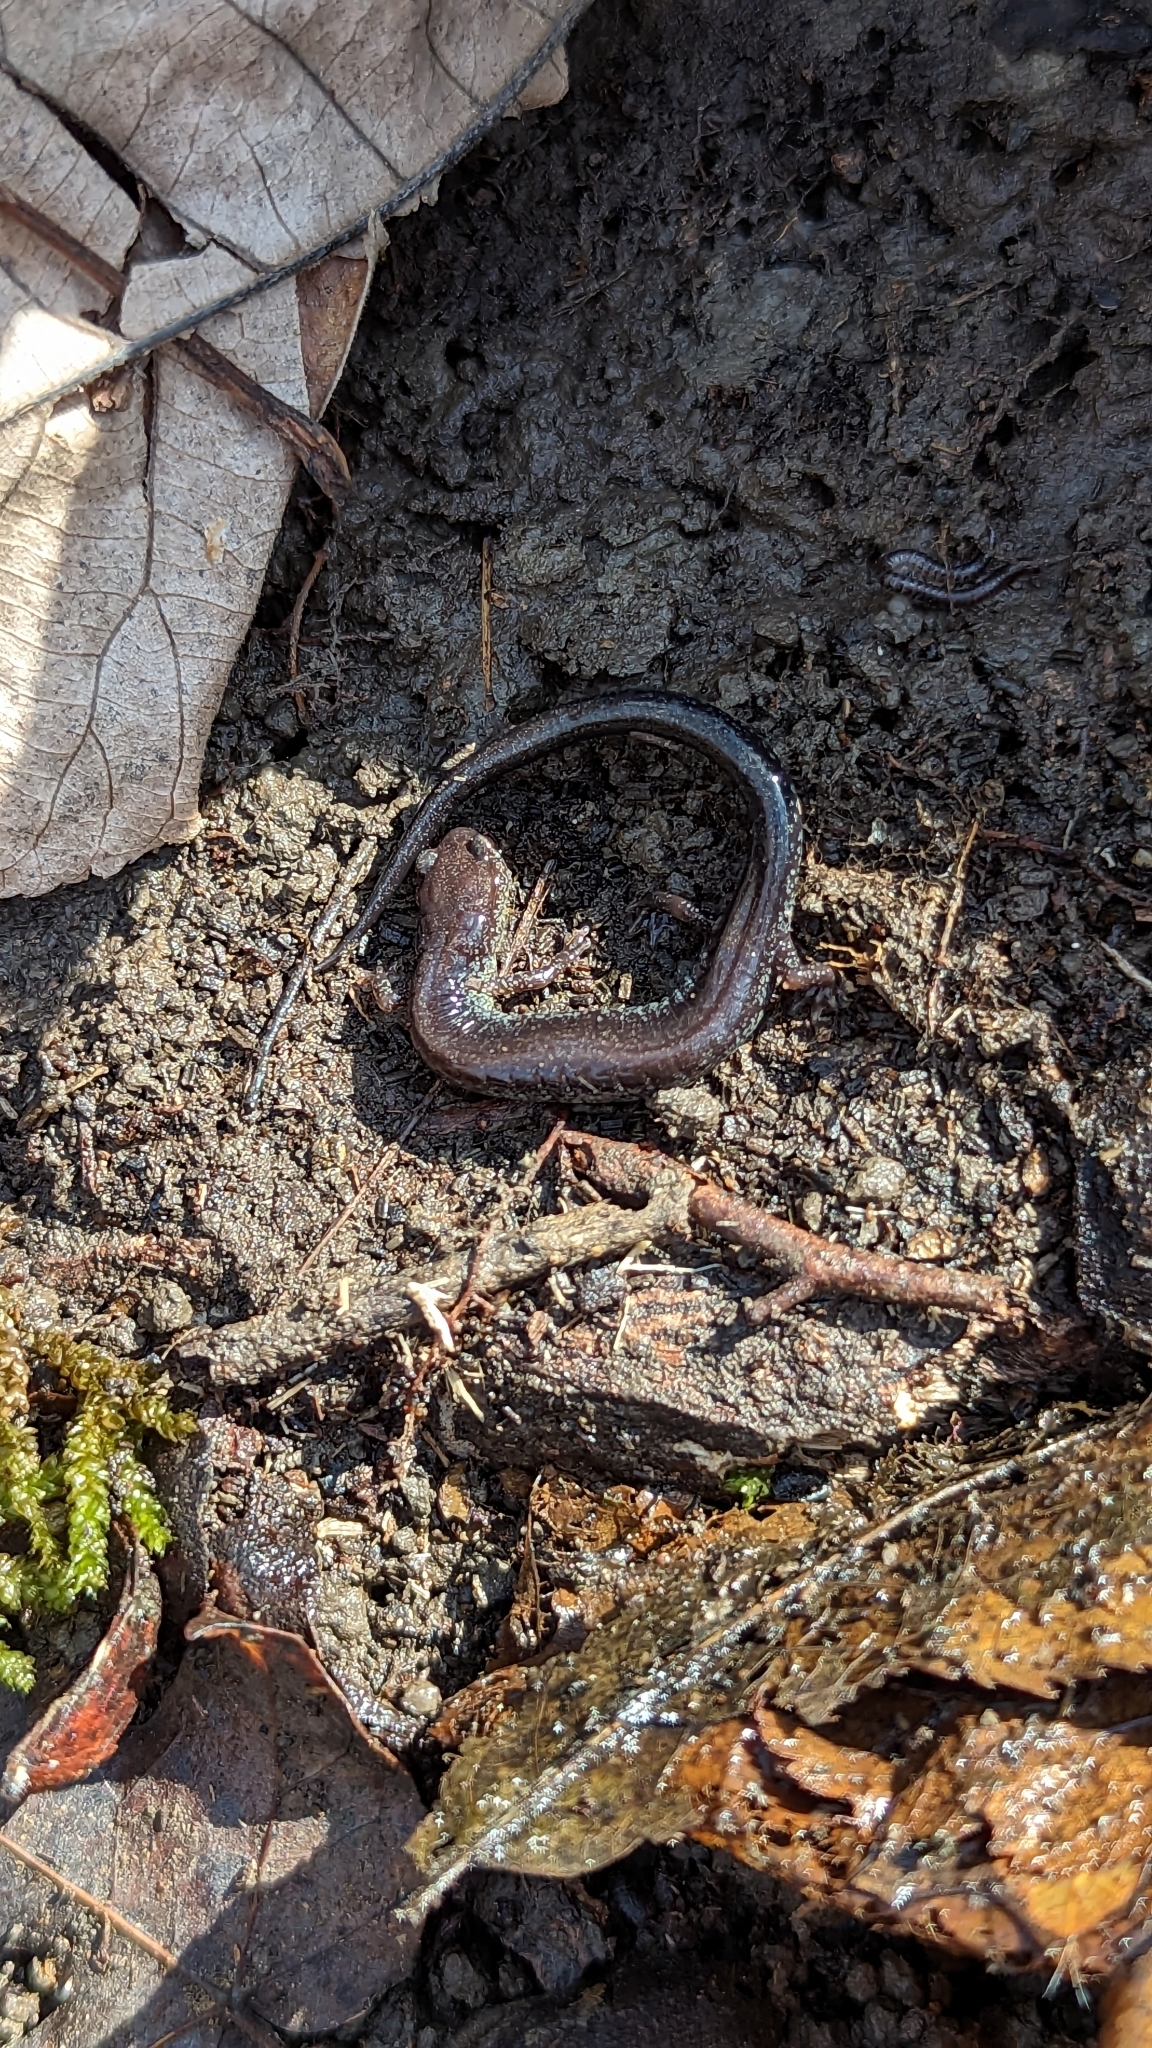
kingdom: Animalia
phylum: Chordata
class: Amphibia
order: Caudata
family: Plethodontidae
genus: Plethodon
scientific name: Plethodon cinereus
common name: Redback salamander
